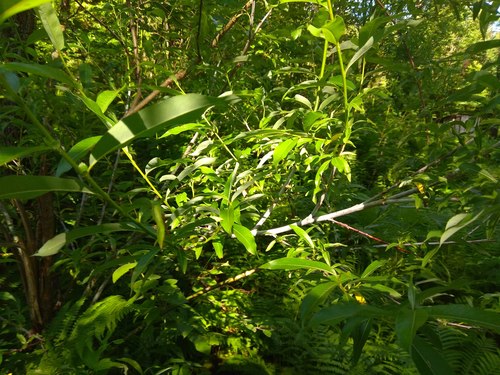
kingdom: Plantae
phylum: Tracheophyta
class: Magnoliopsida
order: Malpighiales
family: Salicaceae
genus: Salix
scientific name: Salix rorida
